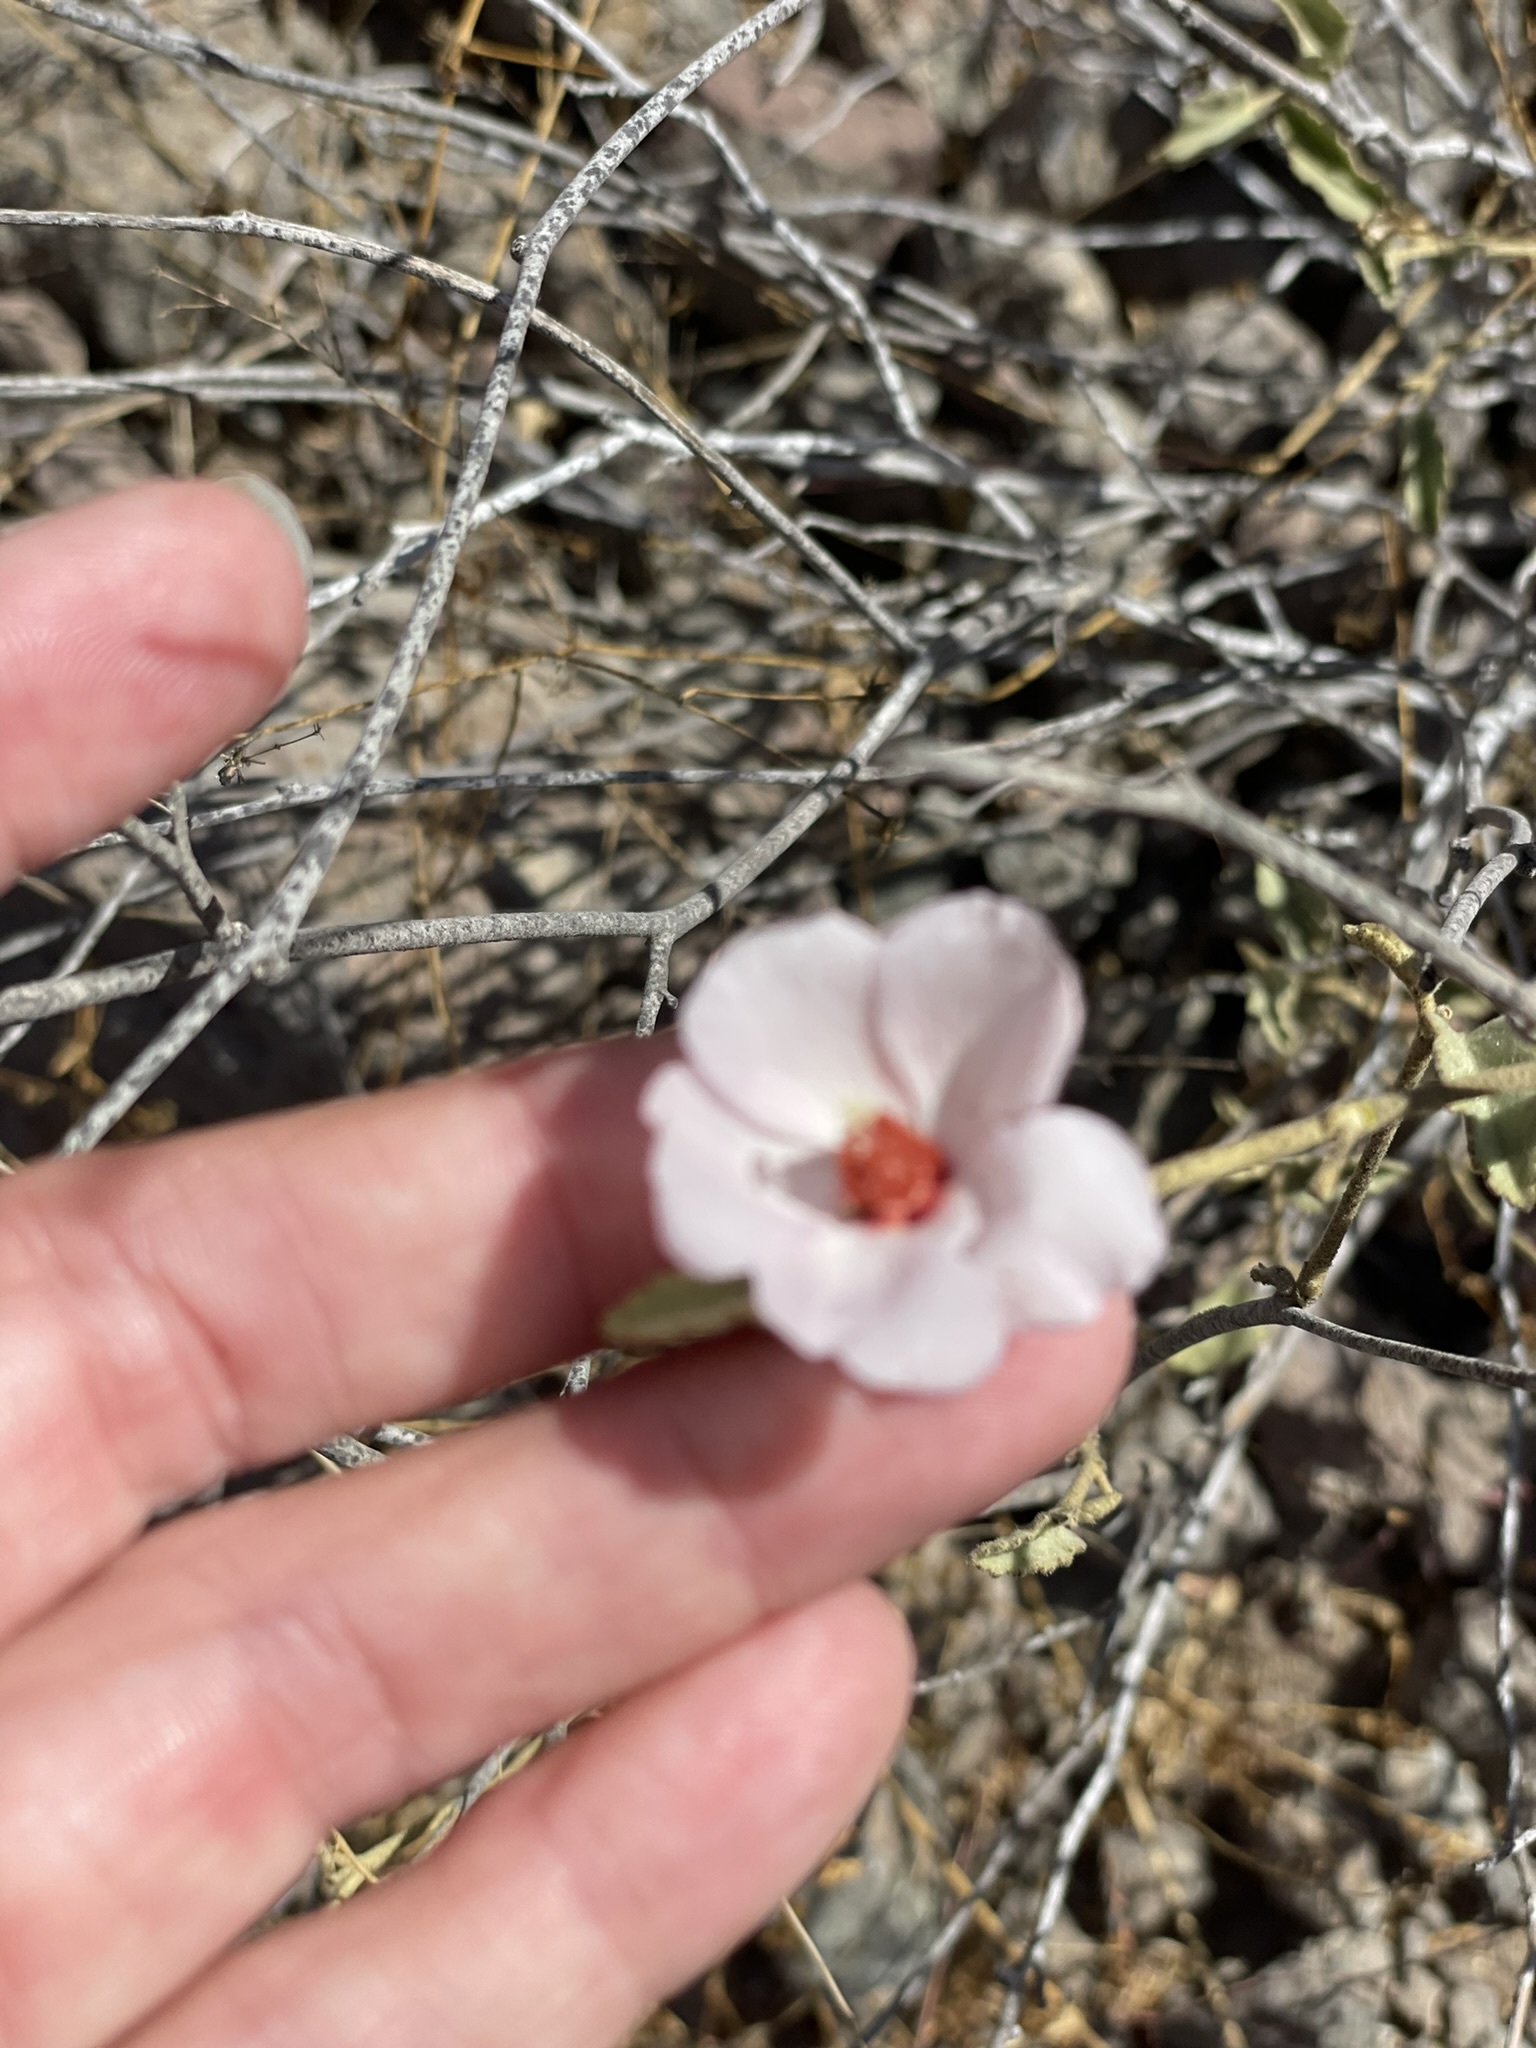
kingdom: Plantae
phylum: Tracheophyta
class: Magnoliopsida
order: Malvales
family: Malvaceae
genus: Hibiscus
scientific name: Hibiscus denudatus
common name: Paleface
